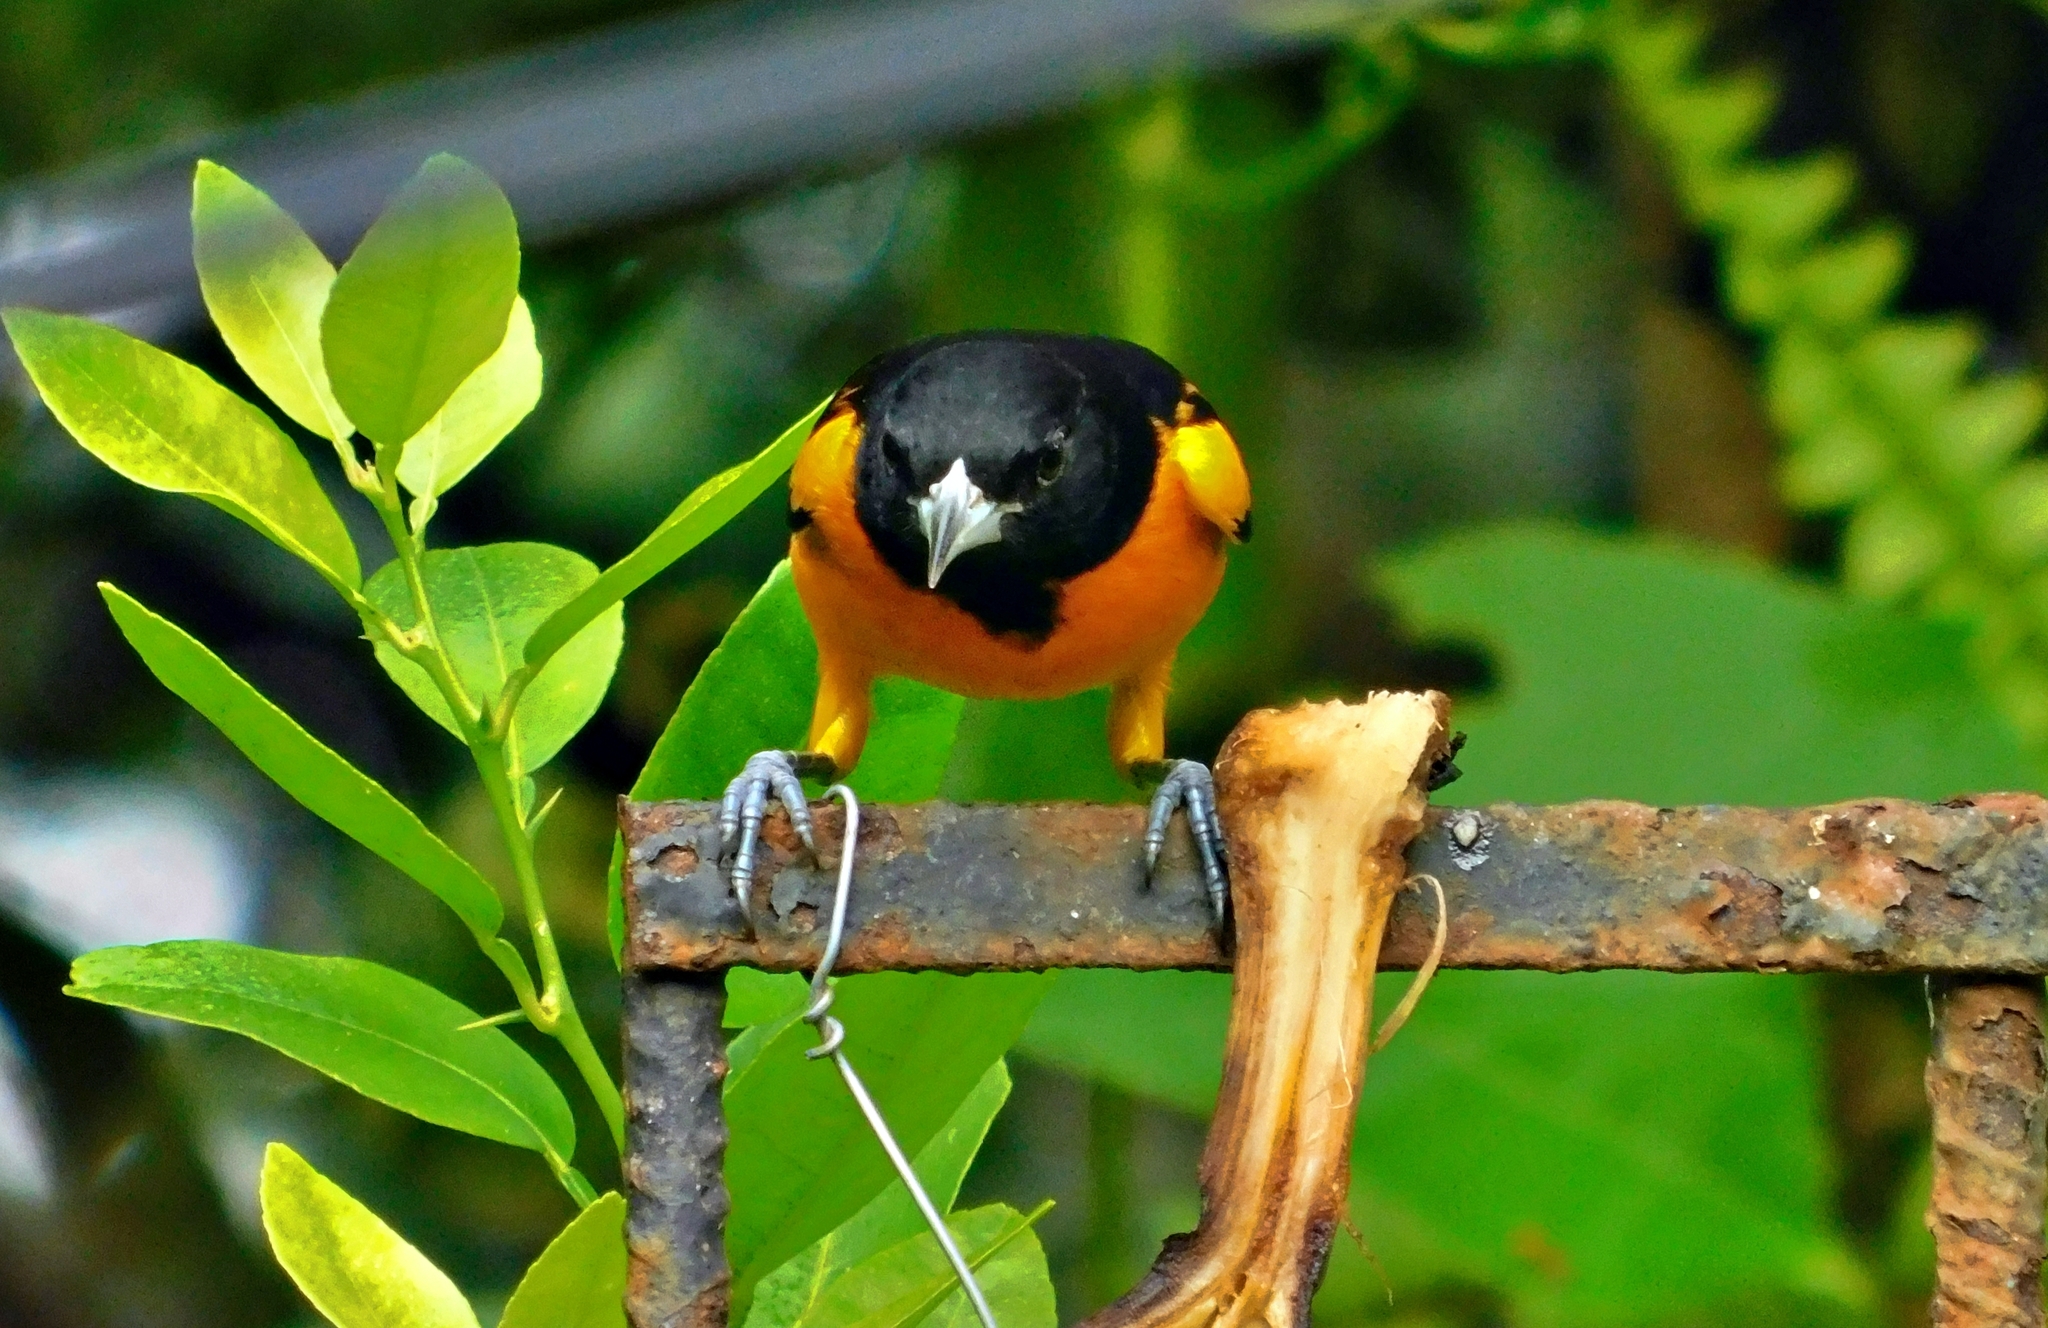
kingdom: Animalia
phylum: Chordata
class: Aves
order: Passeriformes
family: Icteridae
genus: Icterus
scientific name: Icterus galbula
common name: Baltimore oriole
